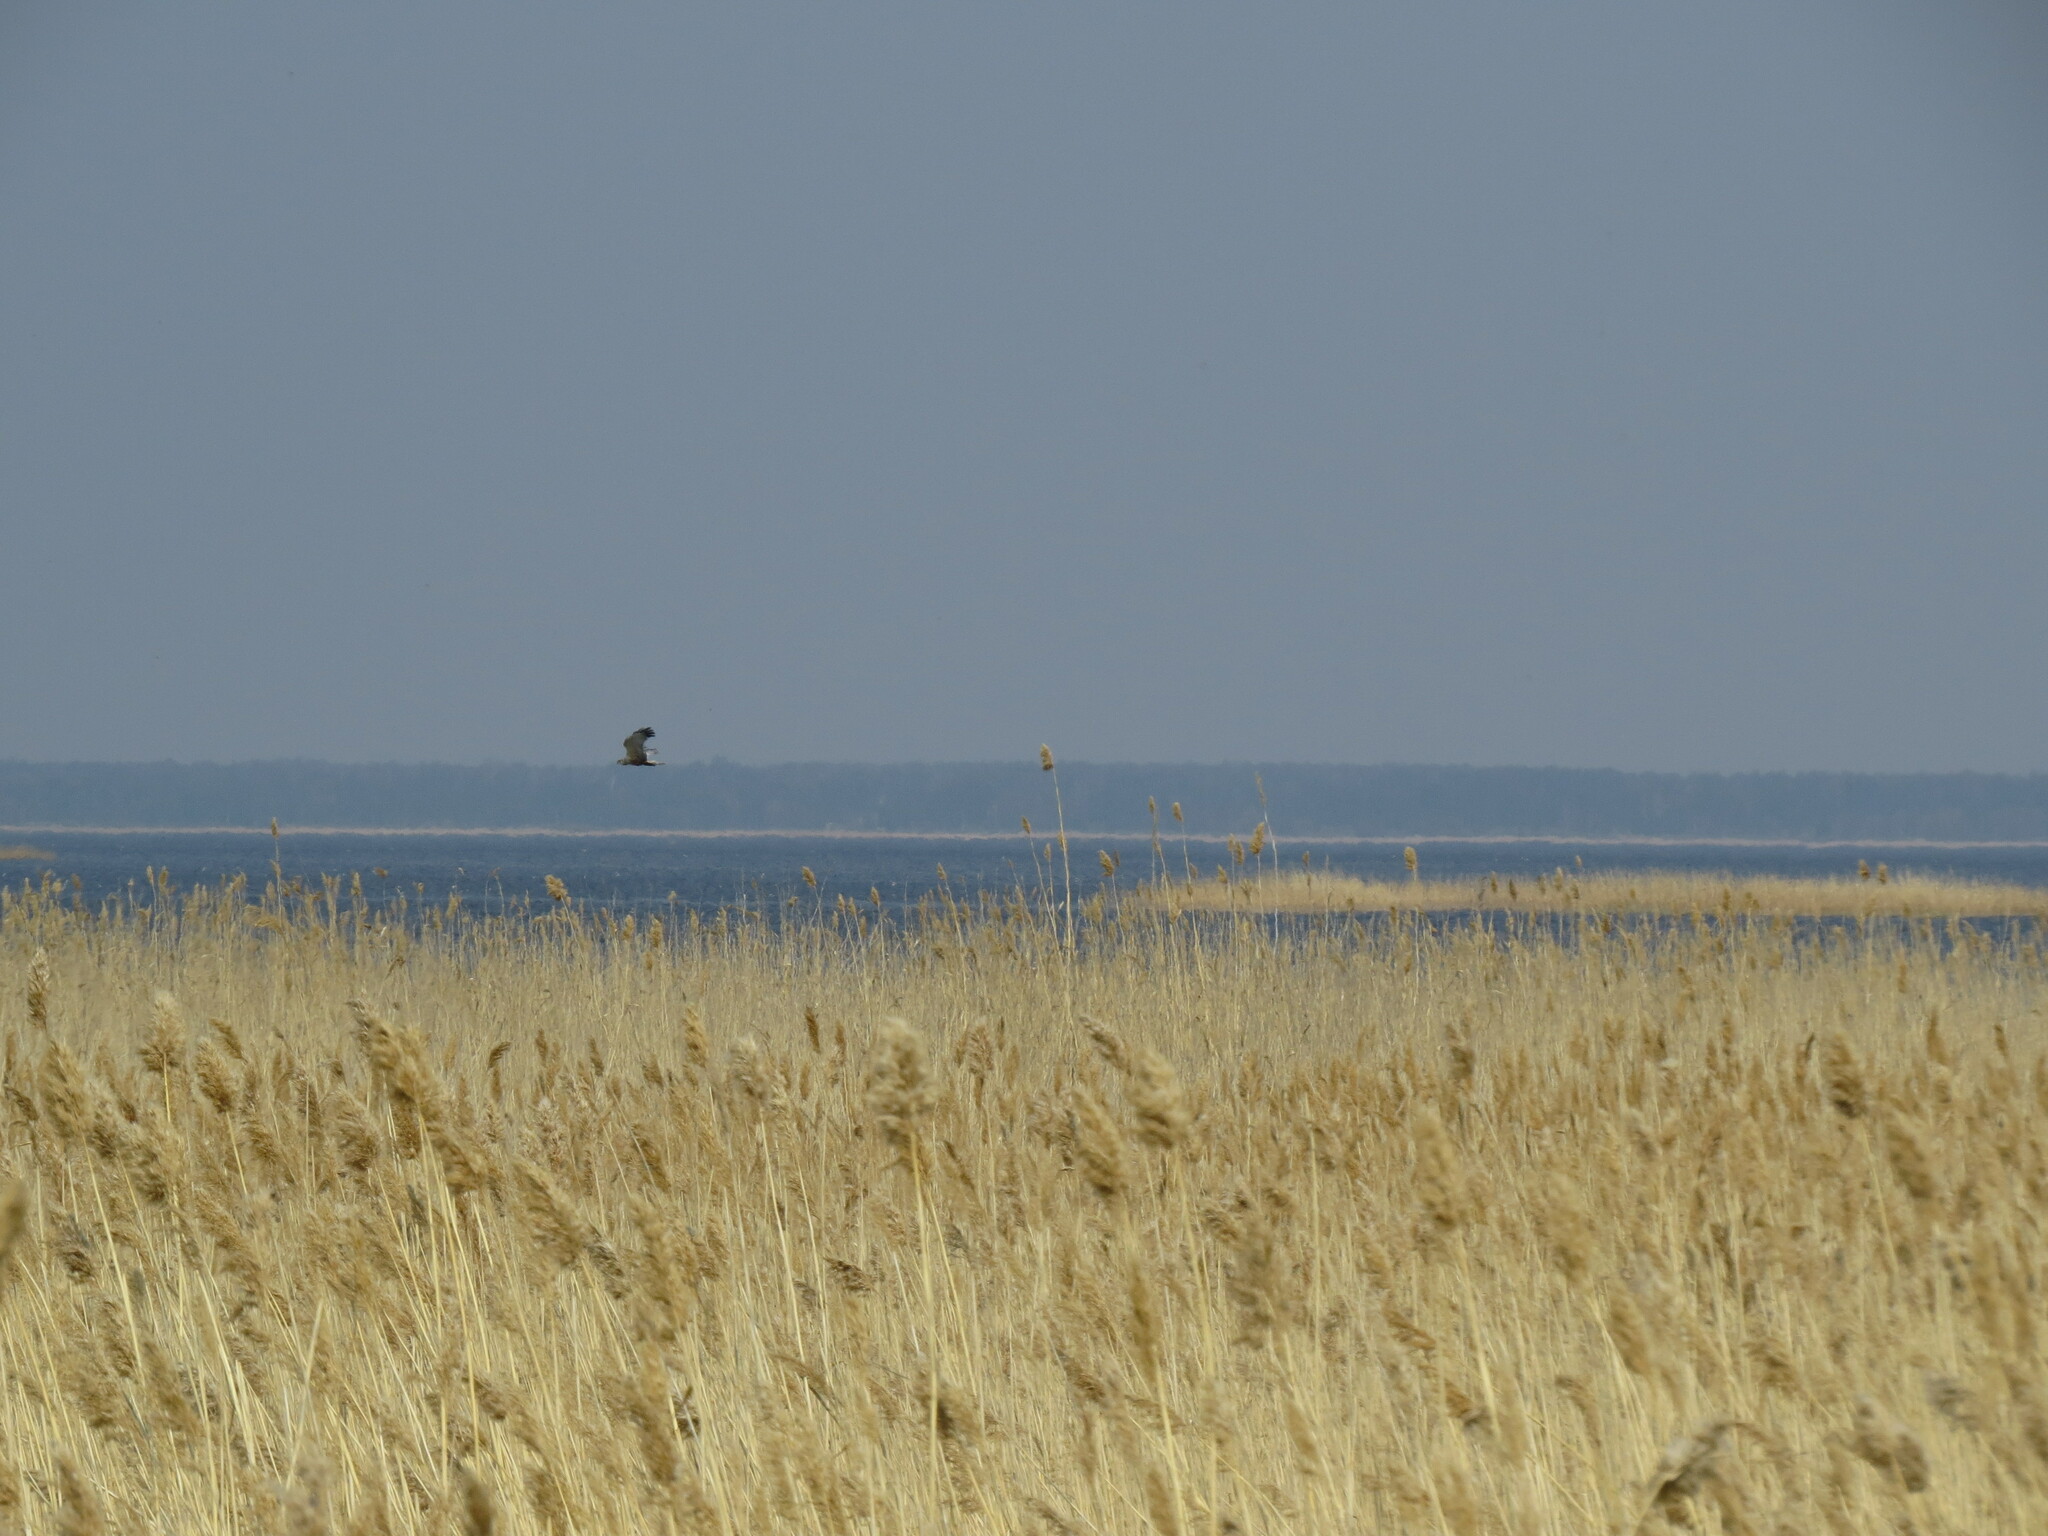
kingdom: Animalia
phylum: Chordata
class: Aves
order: Accipitriformes
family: Accipitridae
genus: Circus
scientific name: Circus aeruginosus
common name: Western marsh harrier
